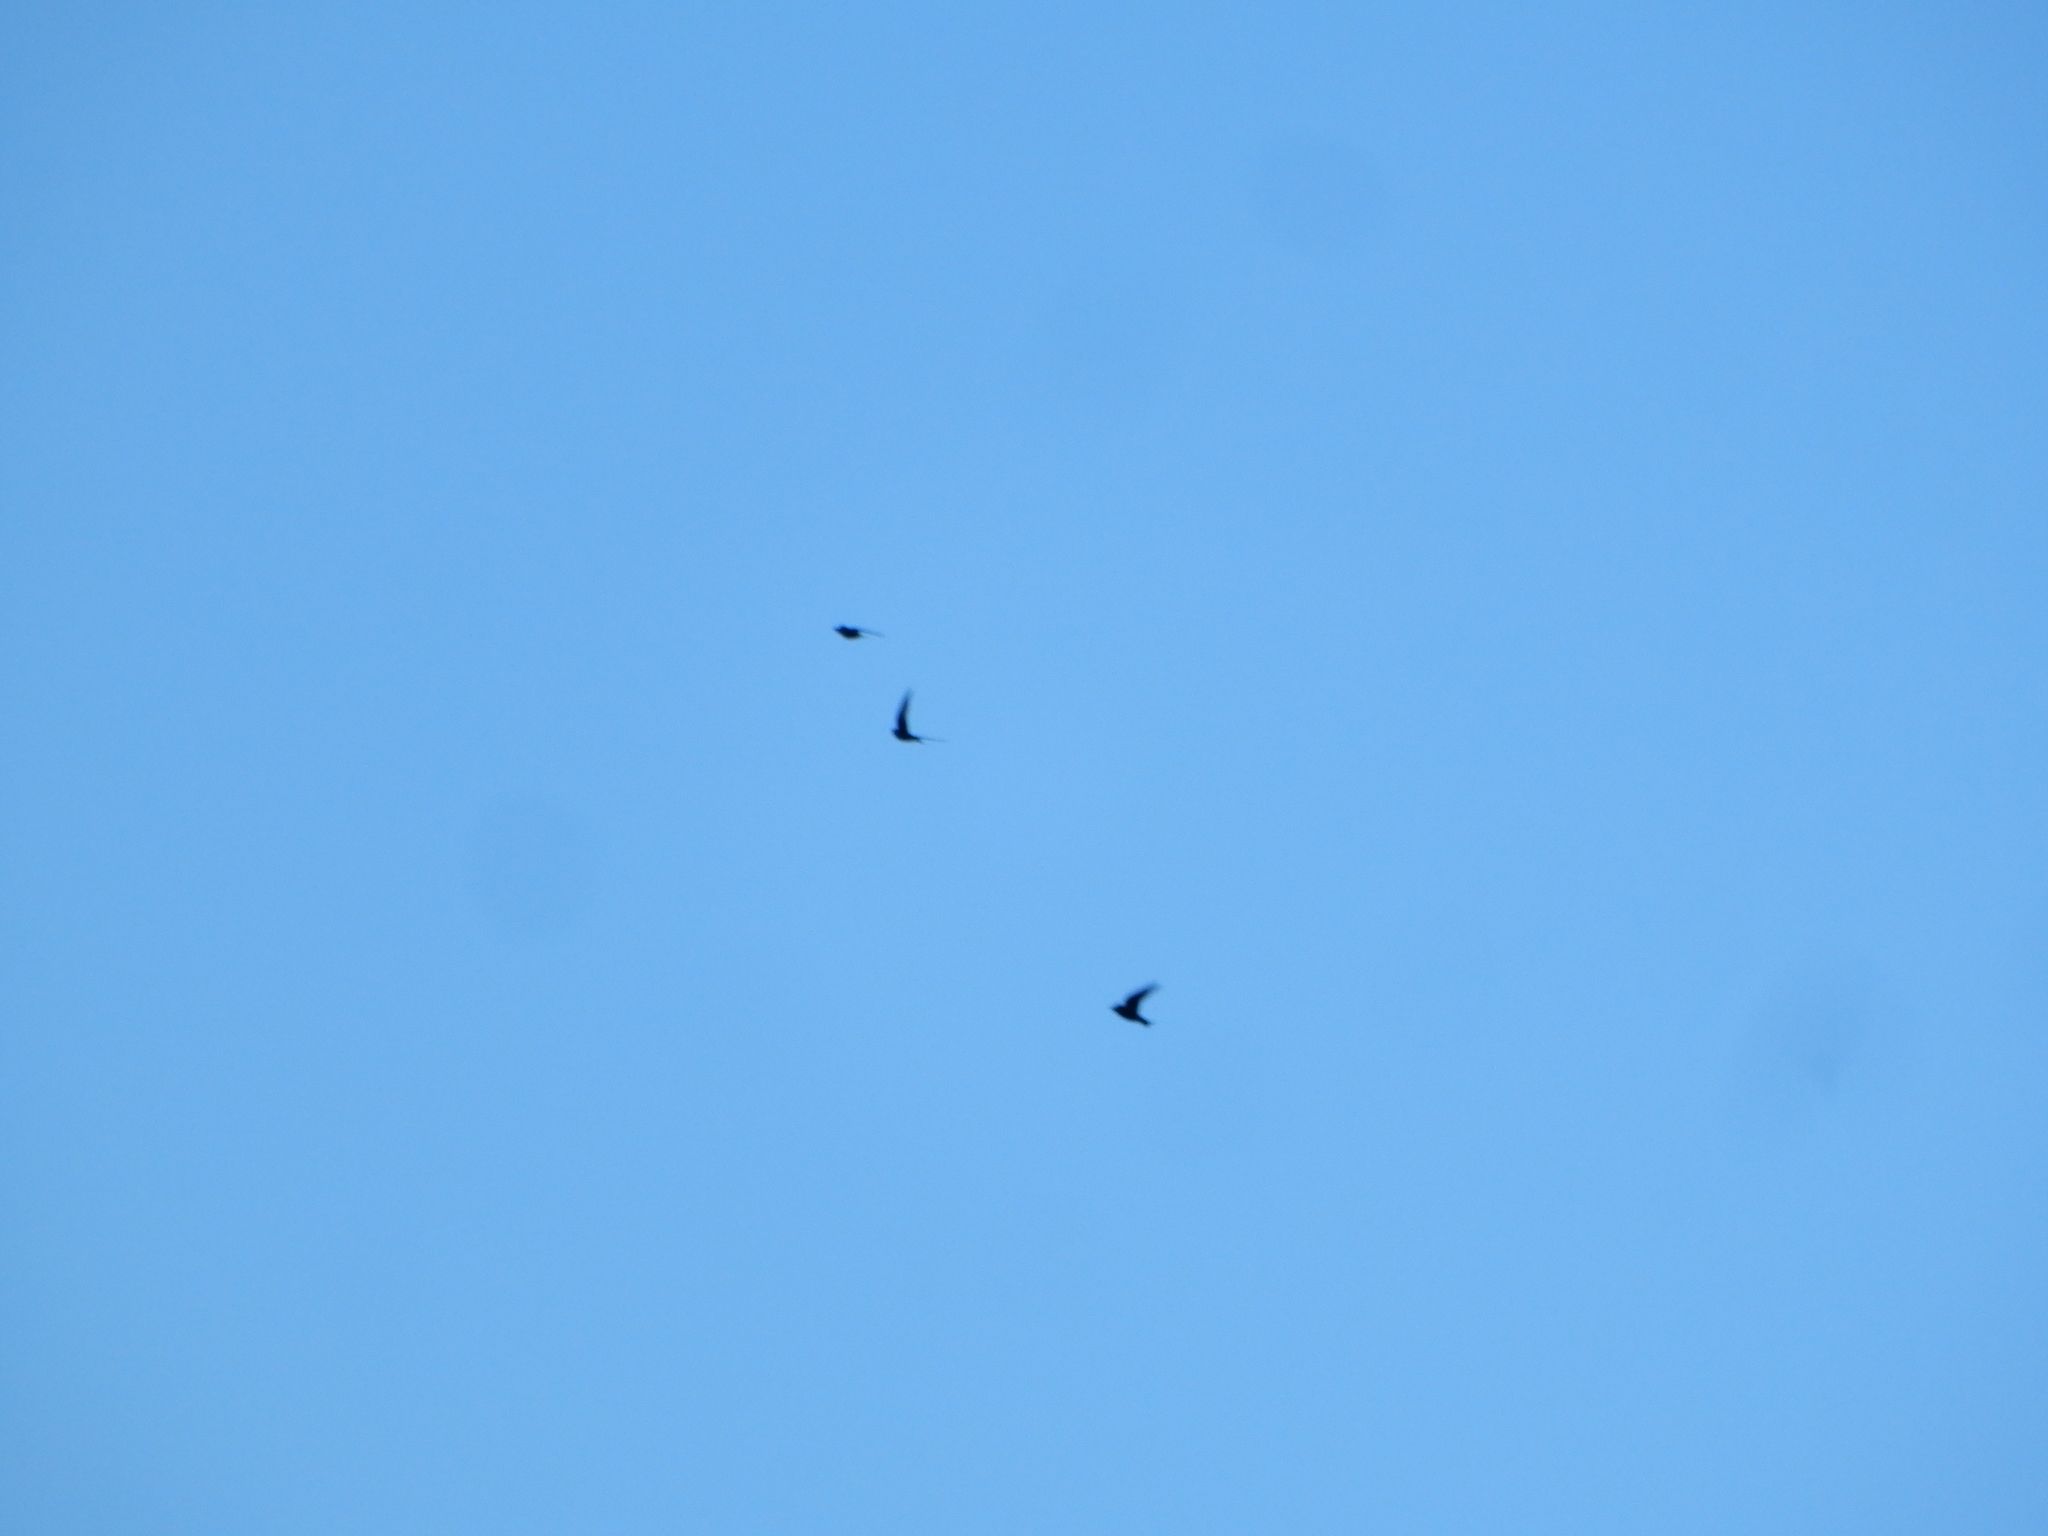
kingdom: Animalia
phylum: Chordata
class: Aves
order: Passeriformes
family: Hirundinidae
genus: Progne
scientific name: Progne subis
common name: Purple martin
